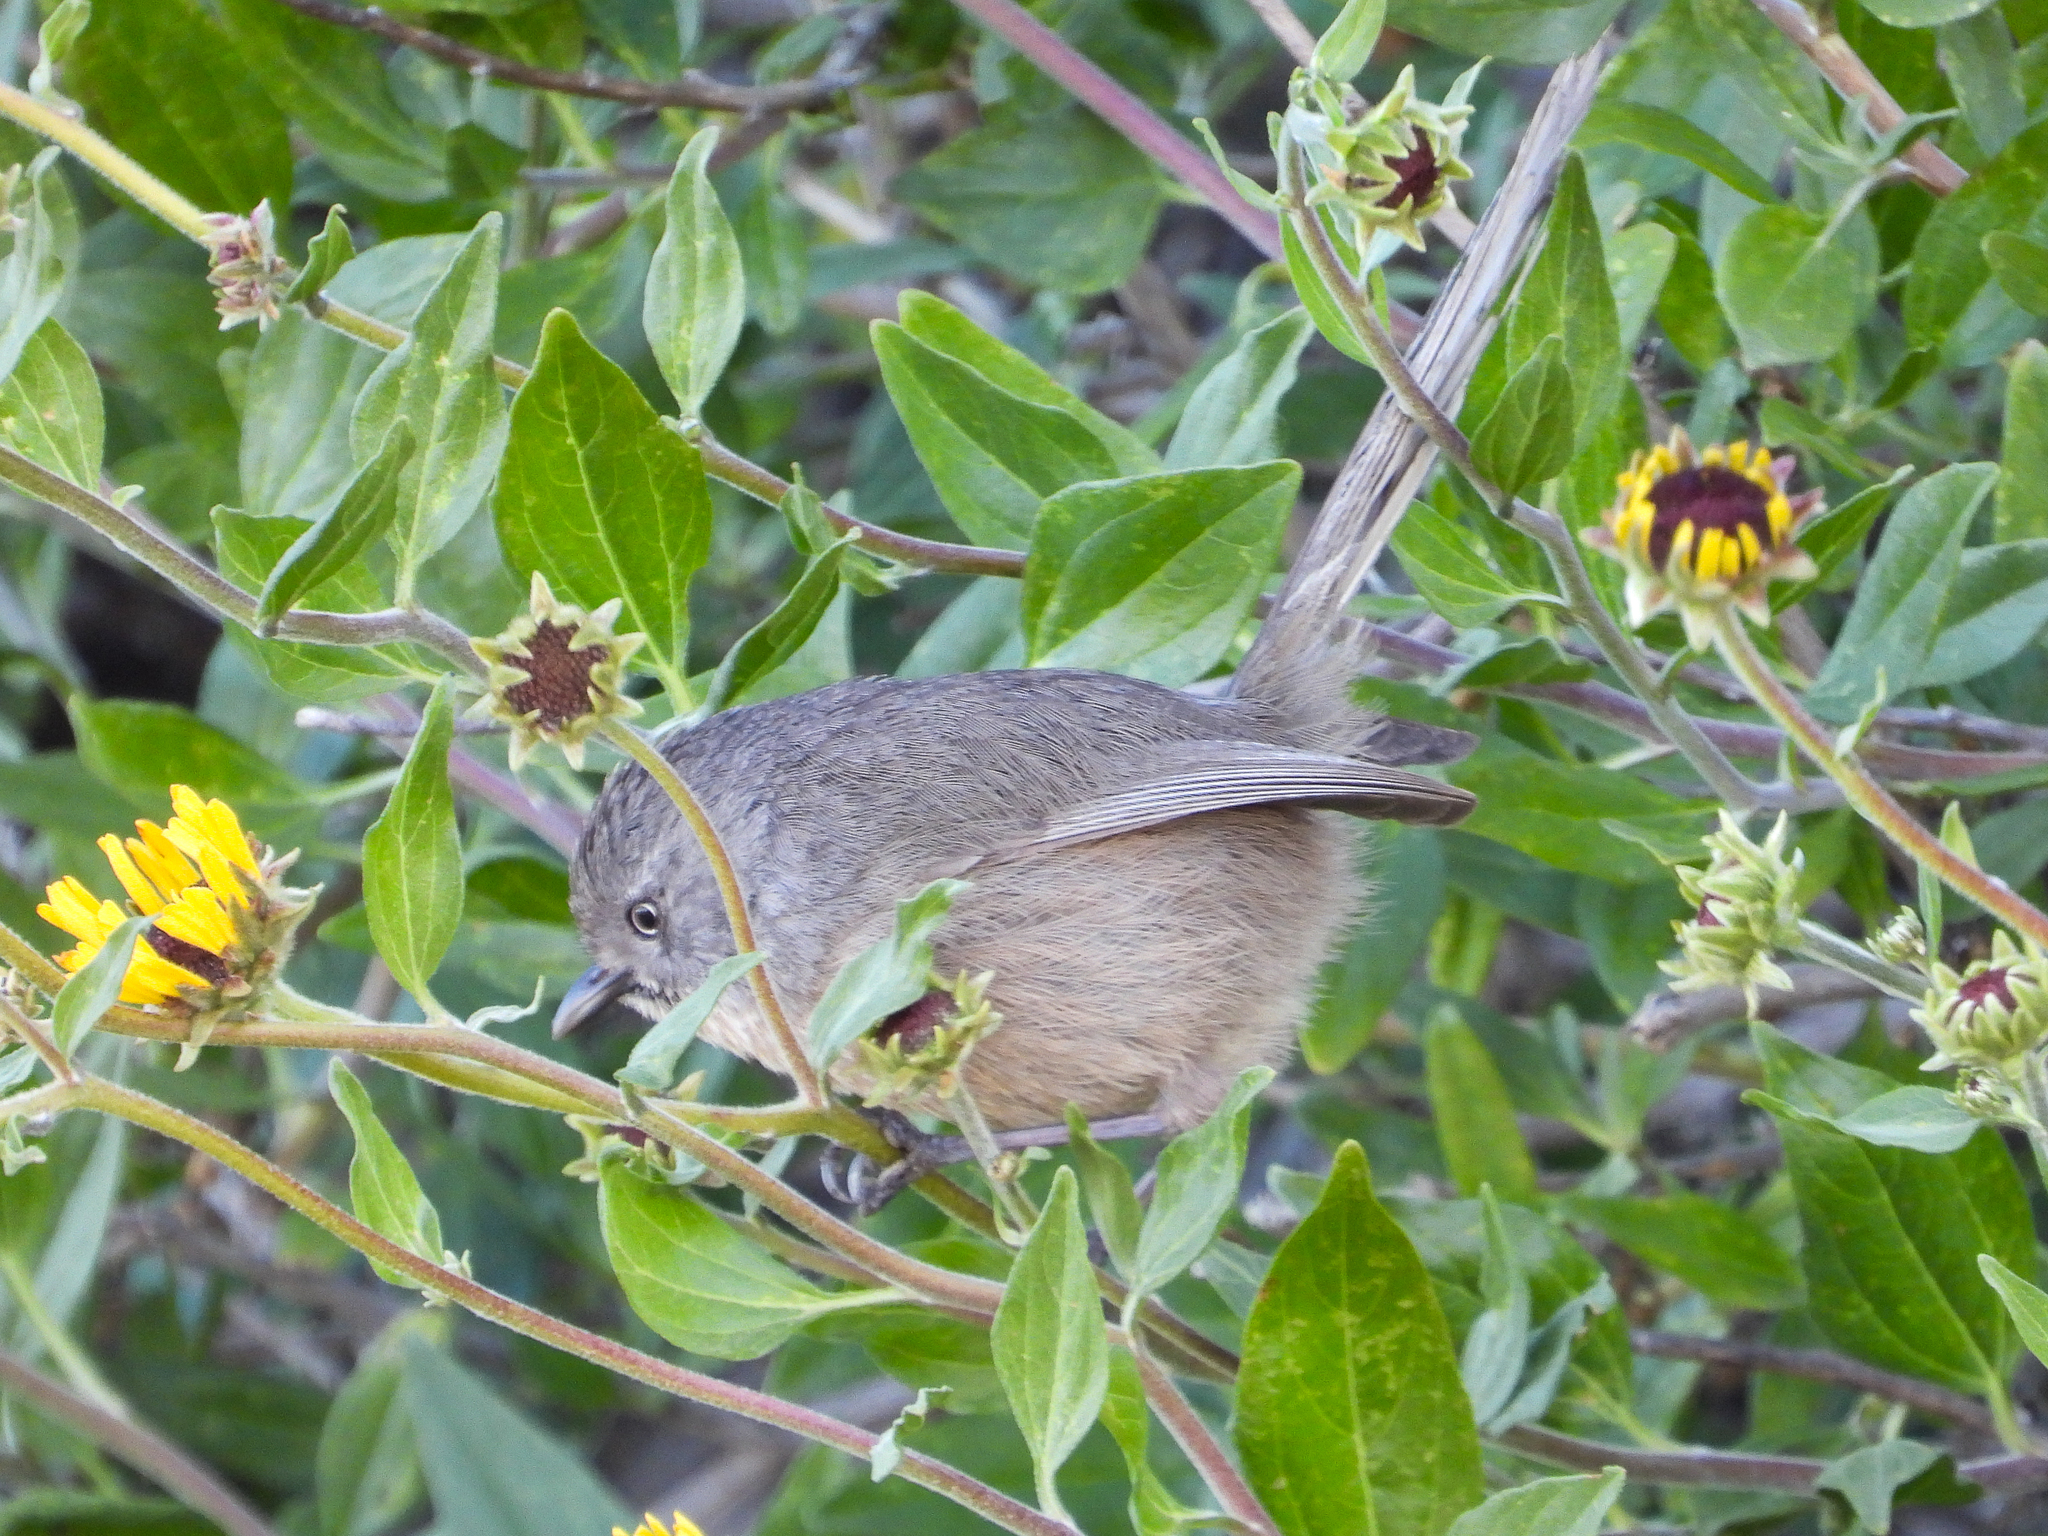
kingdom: Animalia
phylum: Chordata
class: Aves
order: Passeriformes
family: Sylviidae
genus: Chamaea
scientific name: Chamaea fasciata
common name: Wrentit
